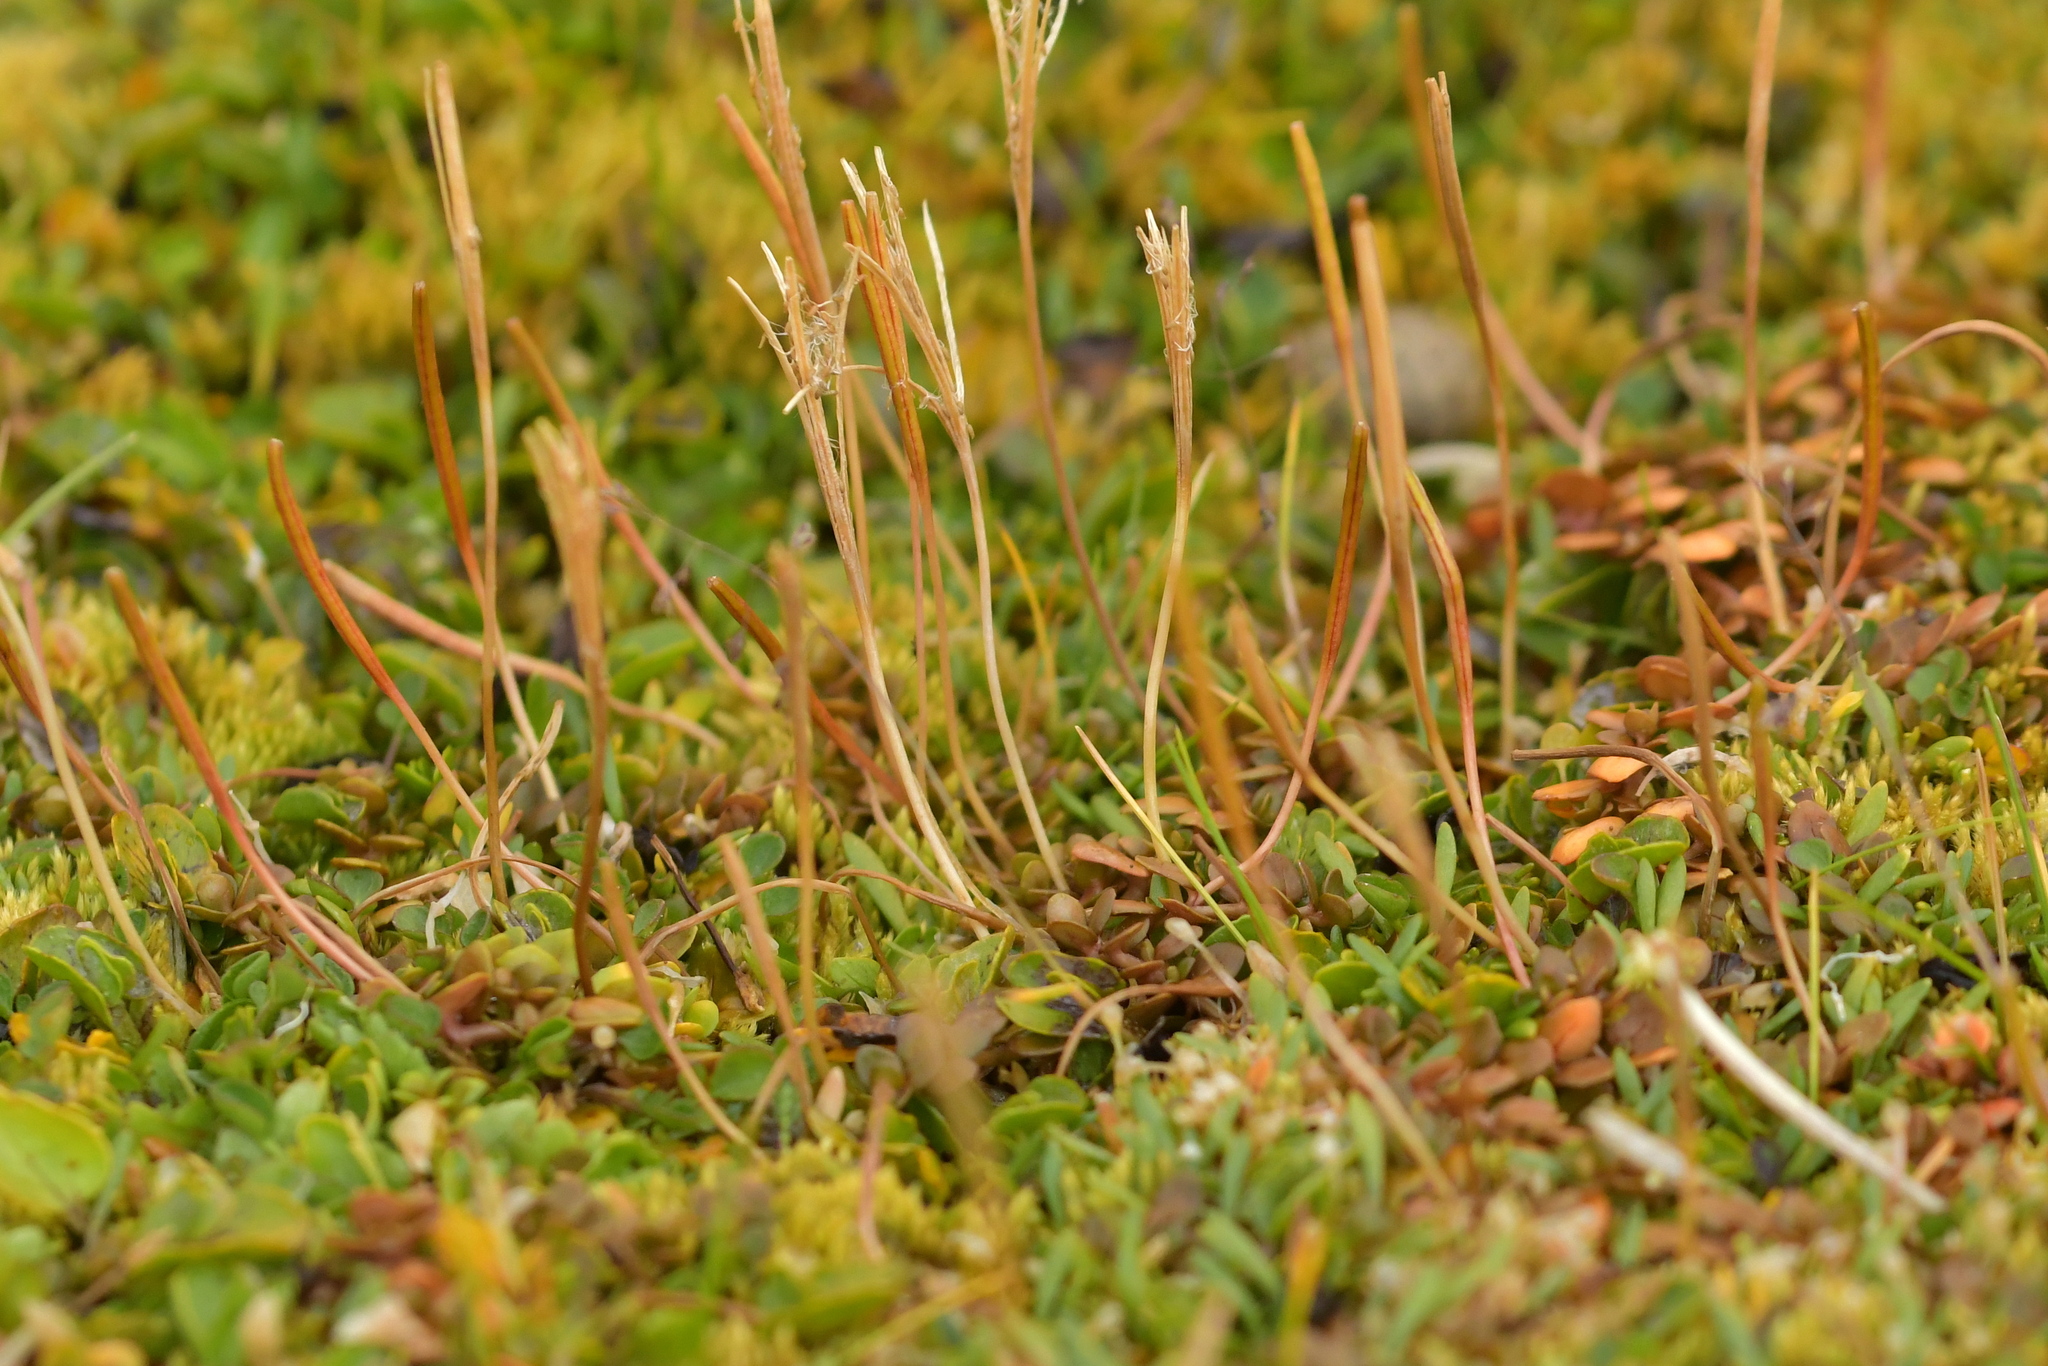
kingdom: Plantae
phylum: Tracheophyta
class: Magnoliopsida
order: Myrtales
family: Onagraceae
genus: Epilobium
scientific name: Epilobium brunnescens
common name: New zealand willowherb
